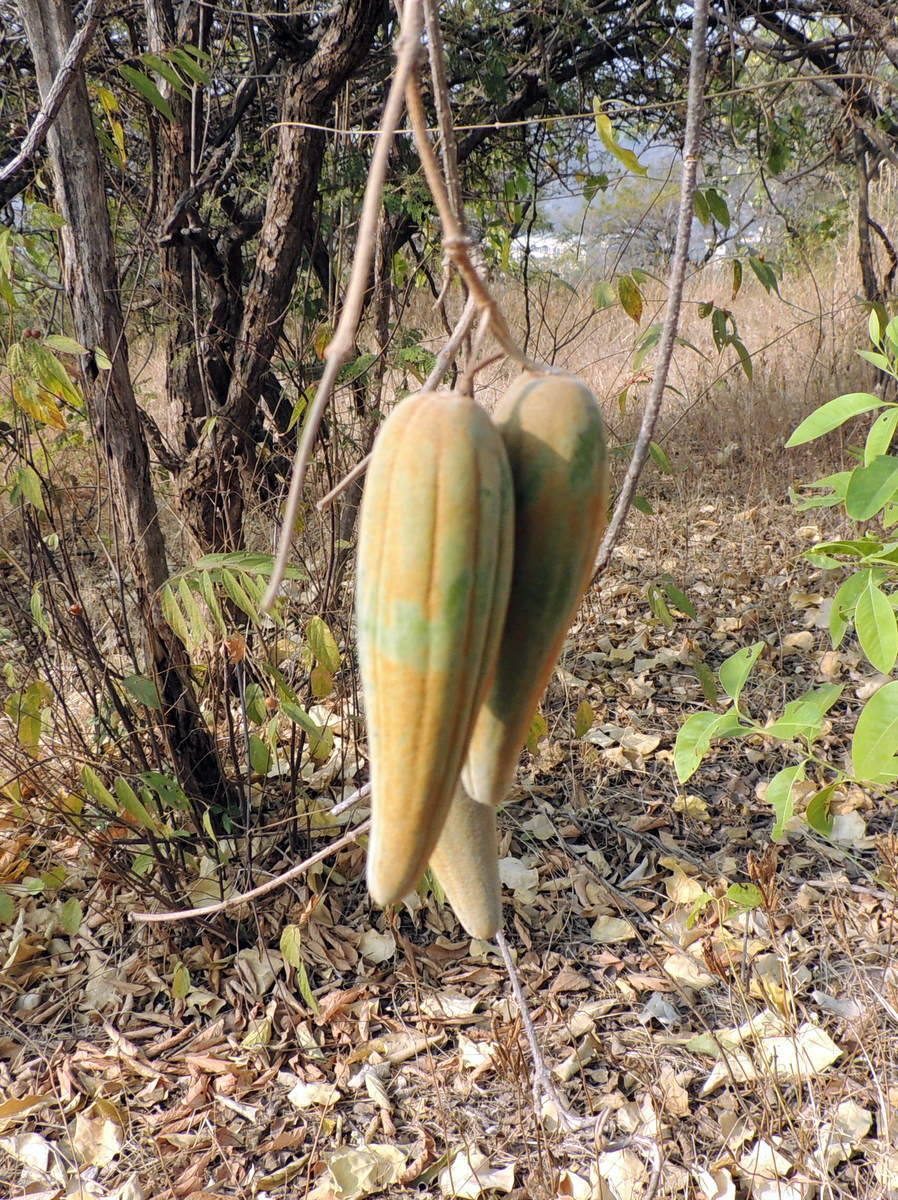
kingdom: Plantae
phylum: Tracheophyta
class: Magnoliopsida
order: Gentianales
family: Apocynaceae
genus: Stephanotis
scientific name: Stephanotis volubilis
